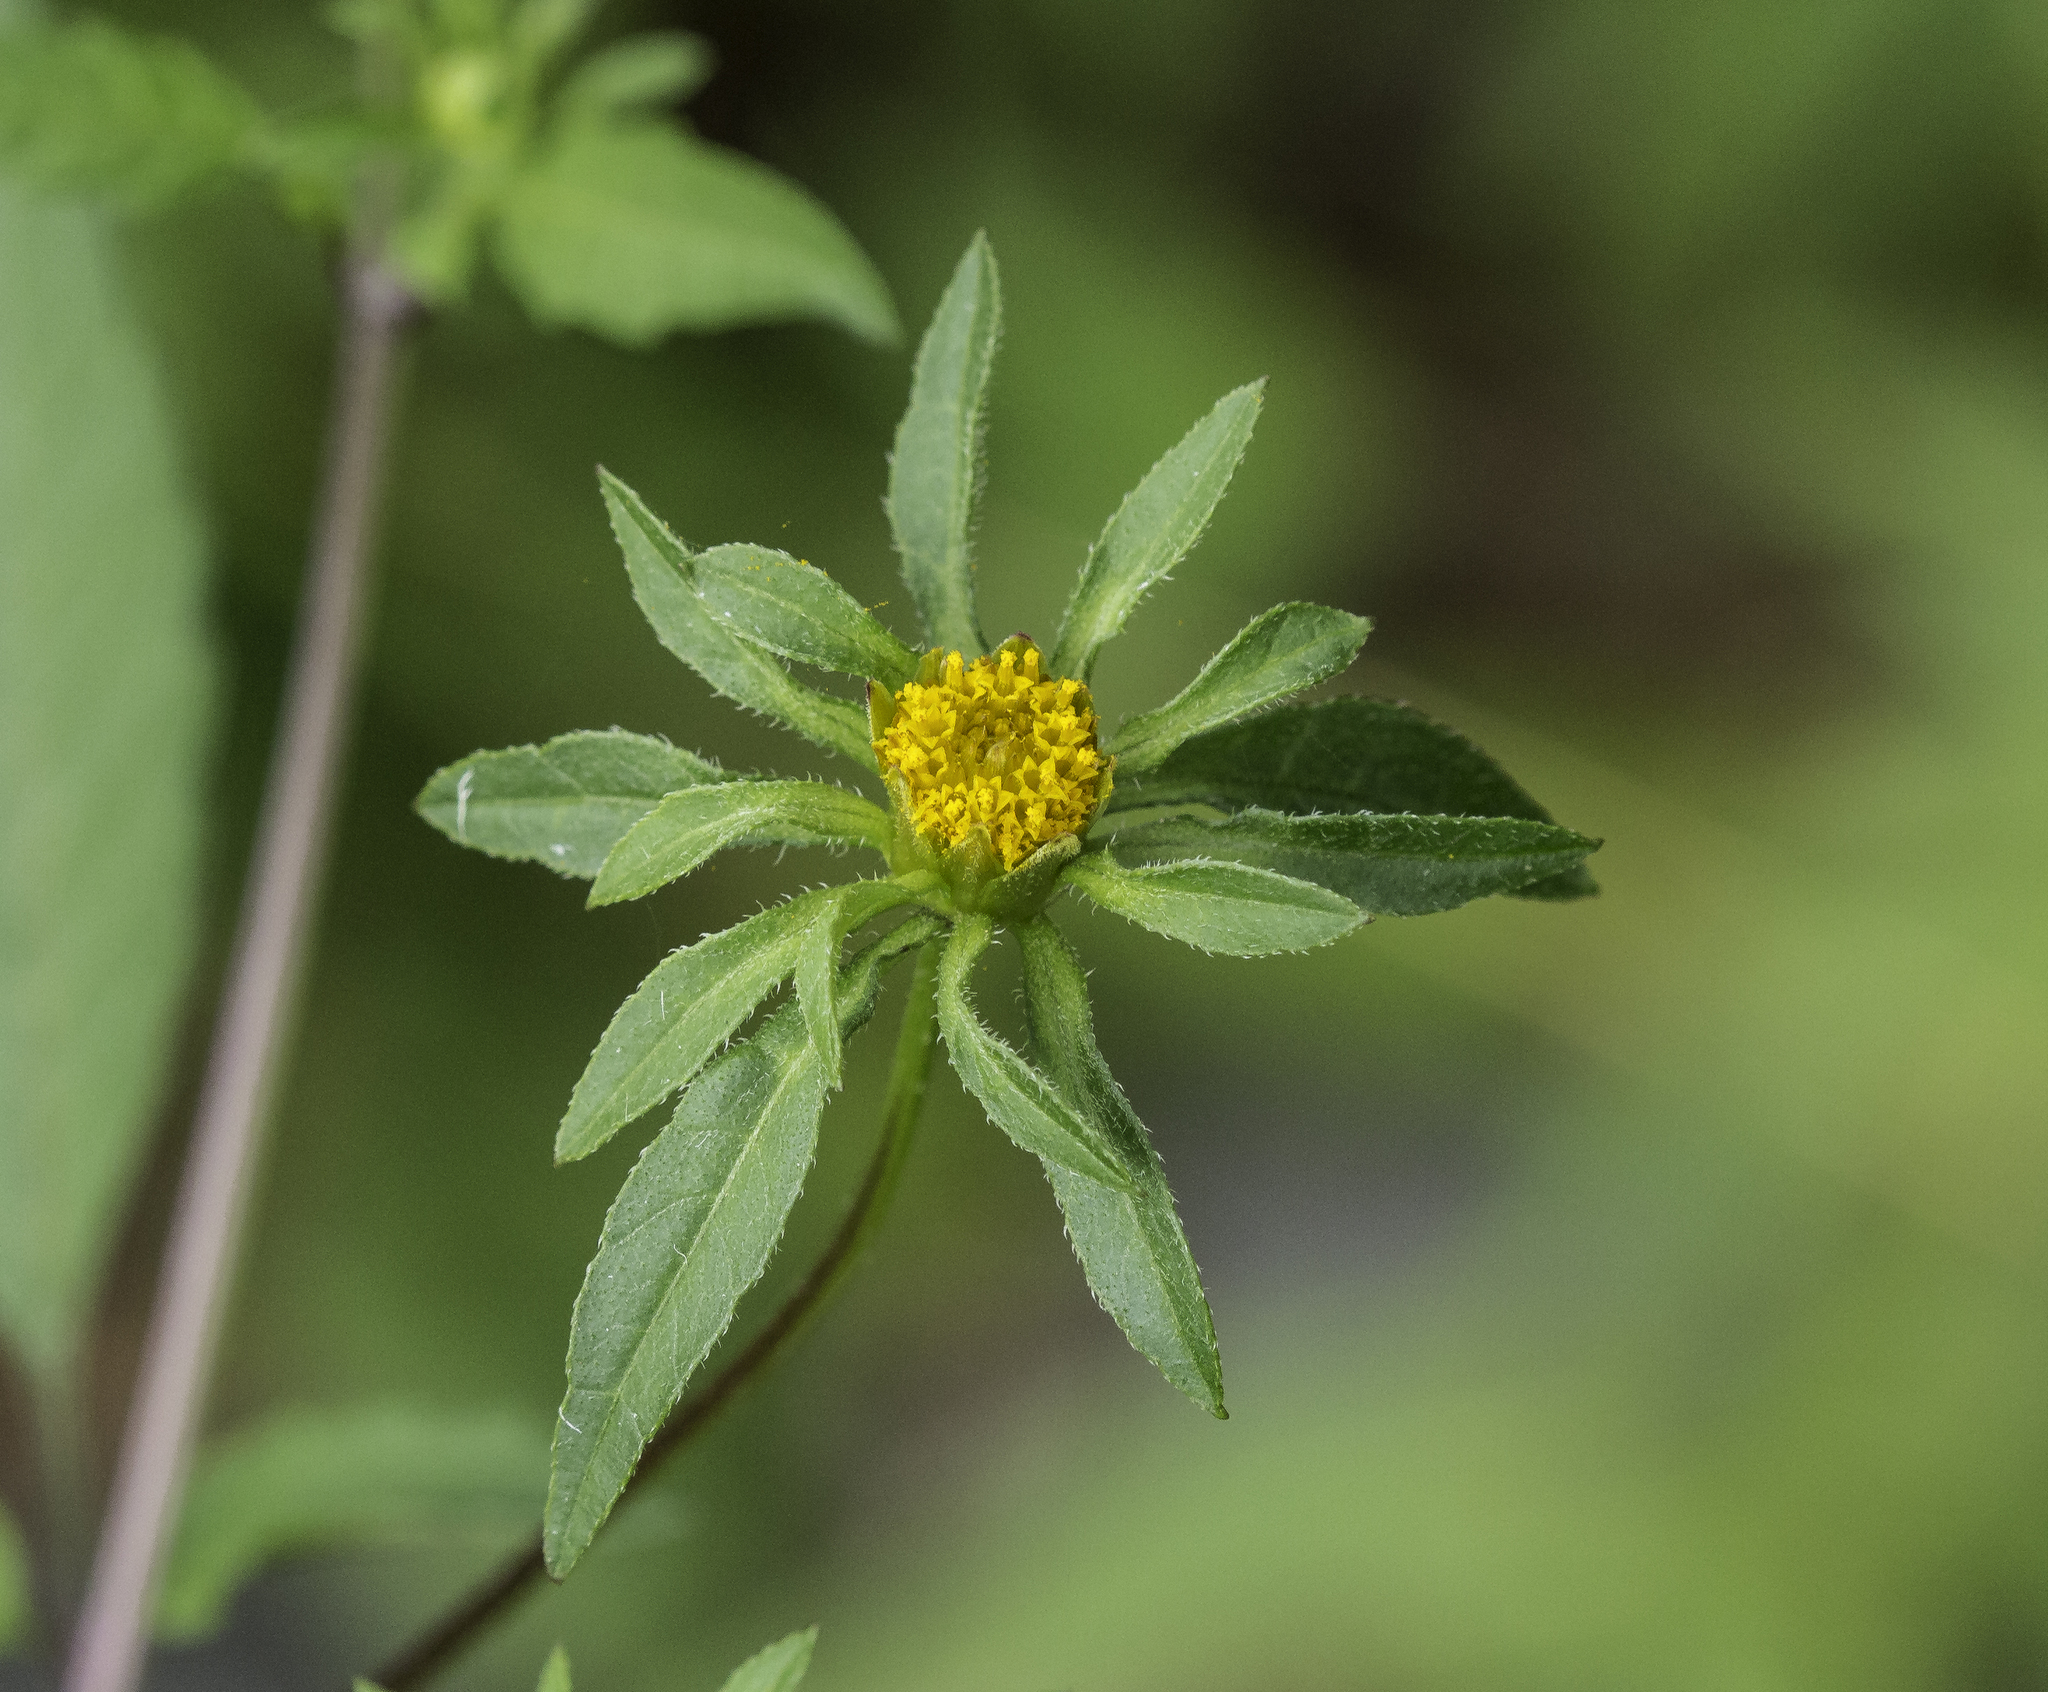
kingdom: Plantae
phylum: Tracheophyta
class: Magnoliopsida
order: Asterales
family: Asteraceae
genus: Bidens
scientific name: Bidens frondosa
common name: Beggarticks
